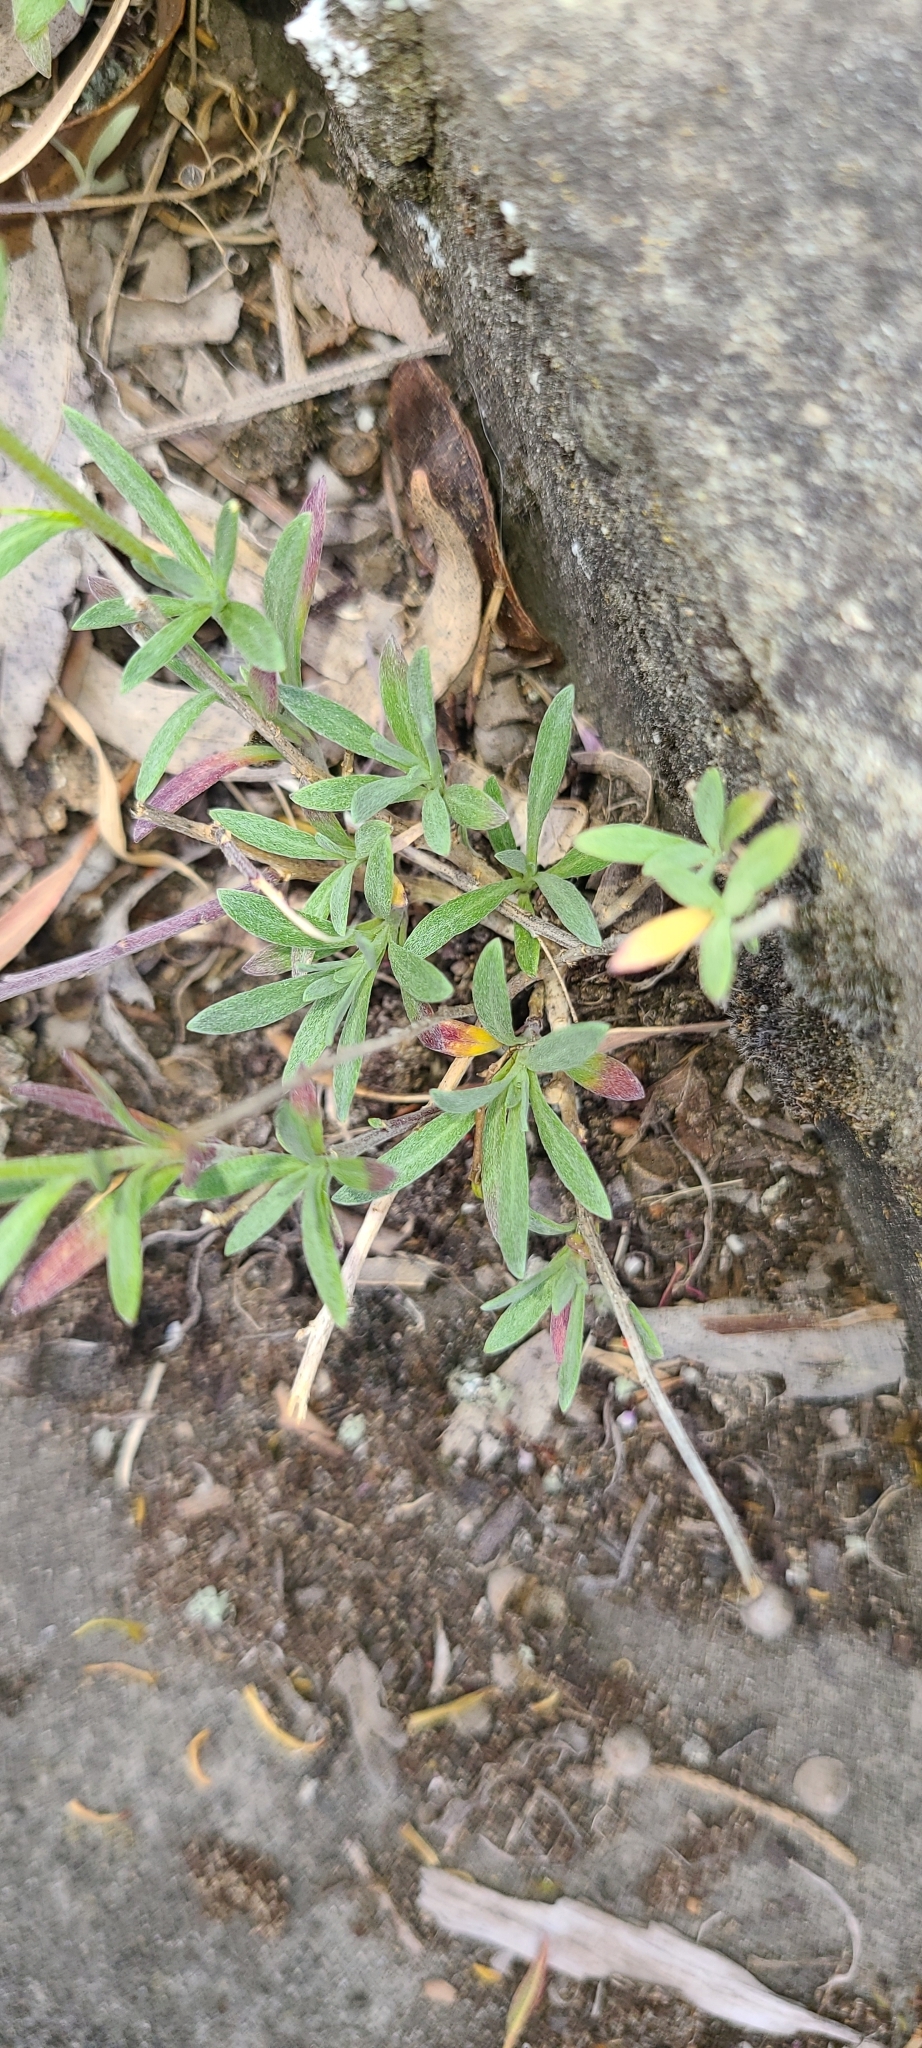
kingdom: Plantae
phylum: Tracheophyta
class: Magnoliopsida
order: Brassicales
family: Brassicaceae
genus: Lobularia
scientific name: Lobularia maritima
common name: Sweet alison
